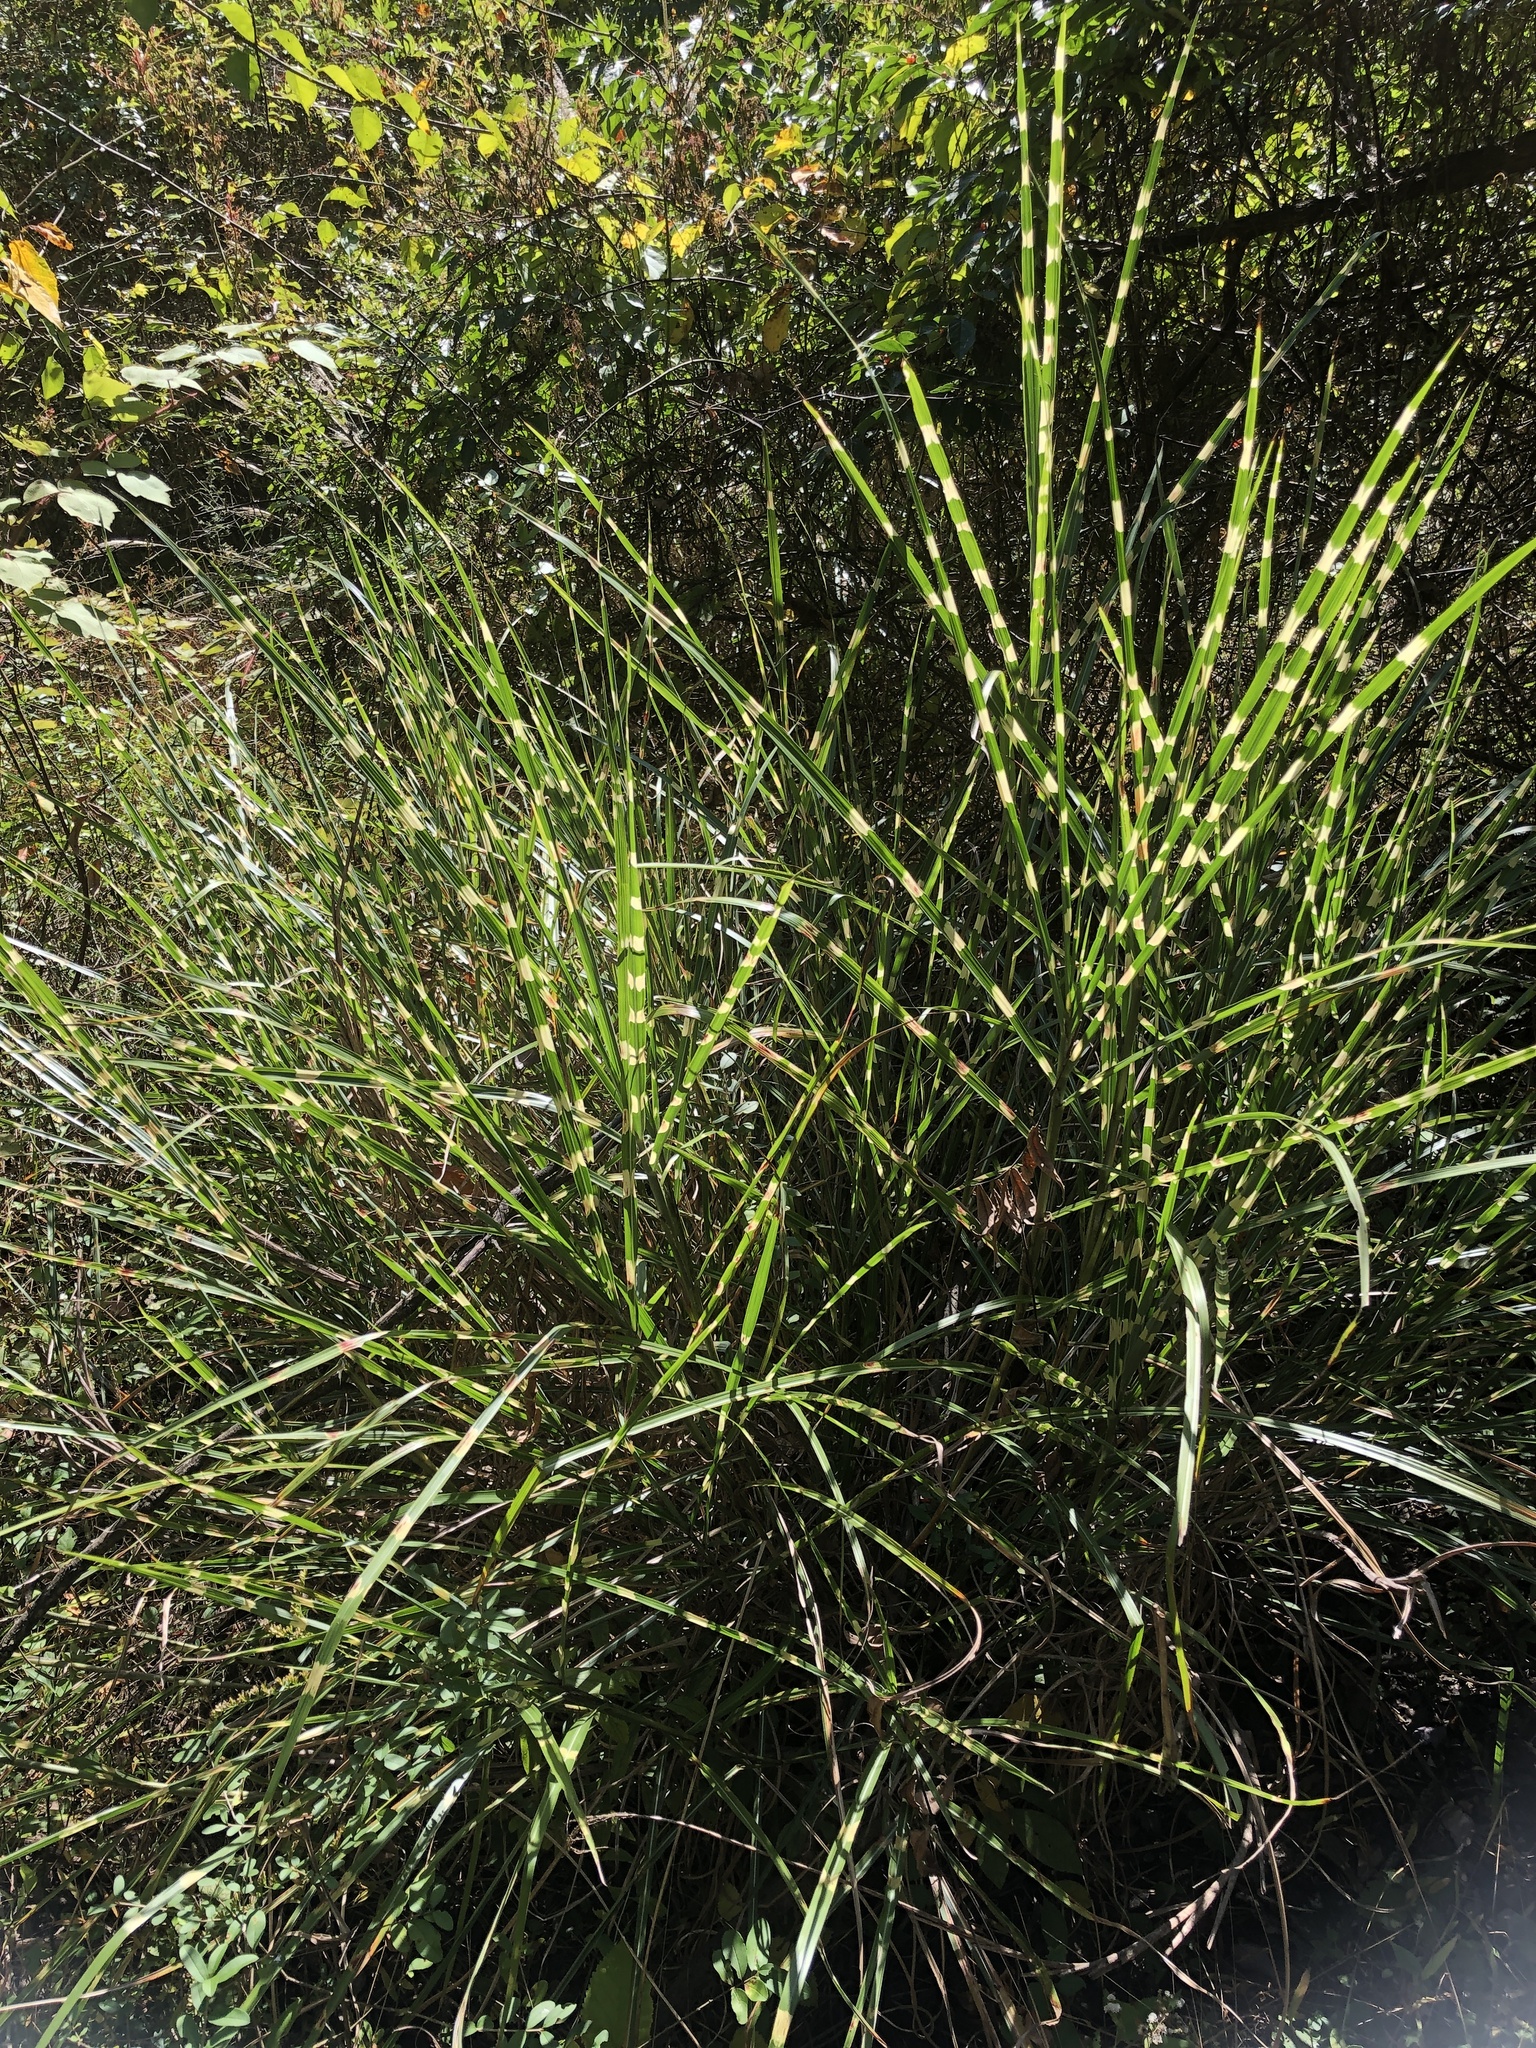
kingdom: Plantae
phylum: Tracheophyta
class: Liliopsida
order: Poales
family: Poaceae
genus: Miscanthus
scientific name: Miscanthus sinensis
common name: Chinese silvergrass
